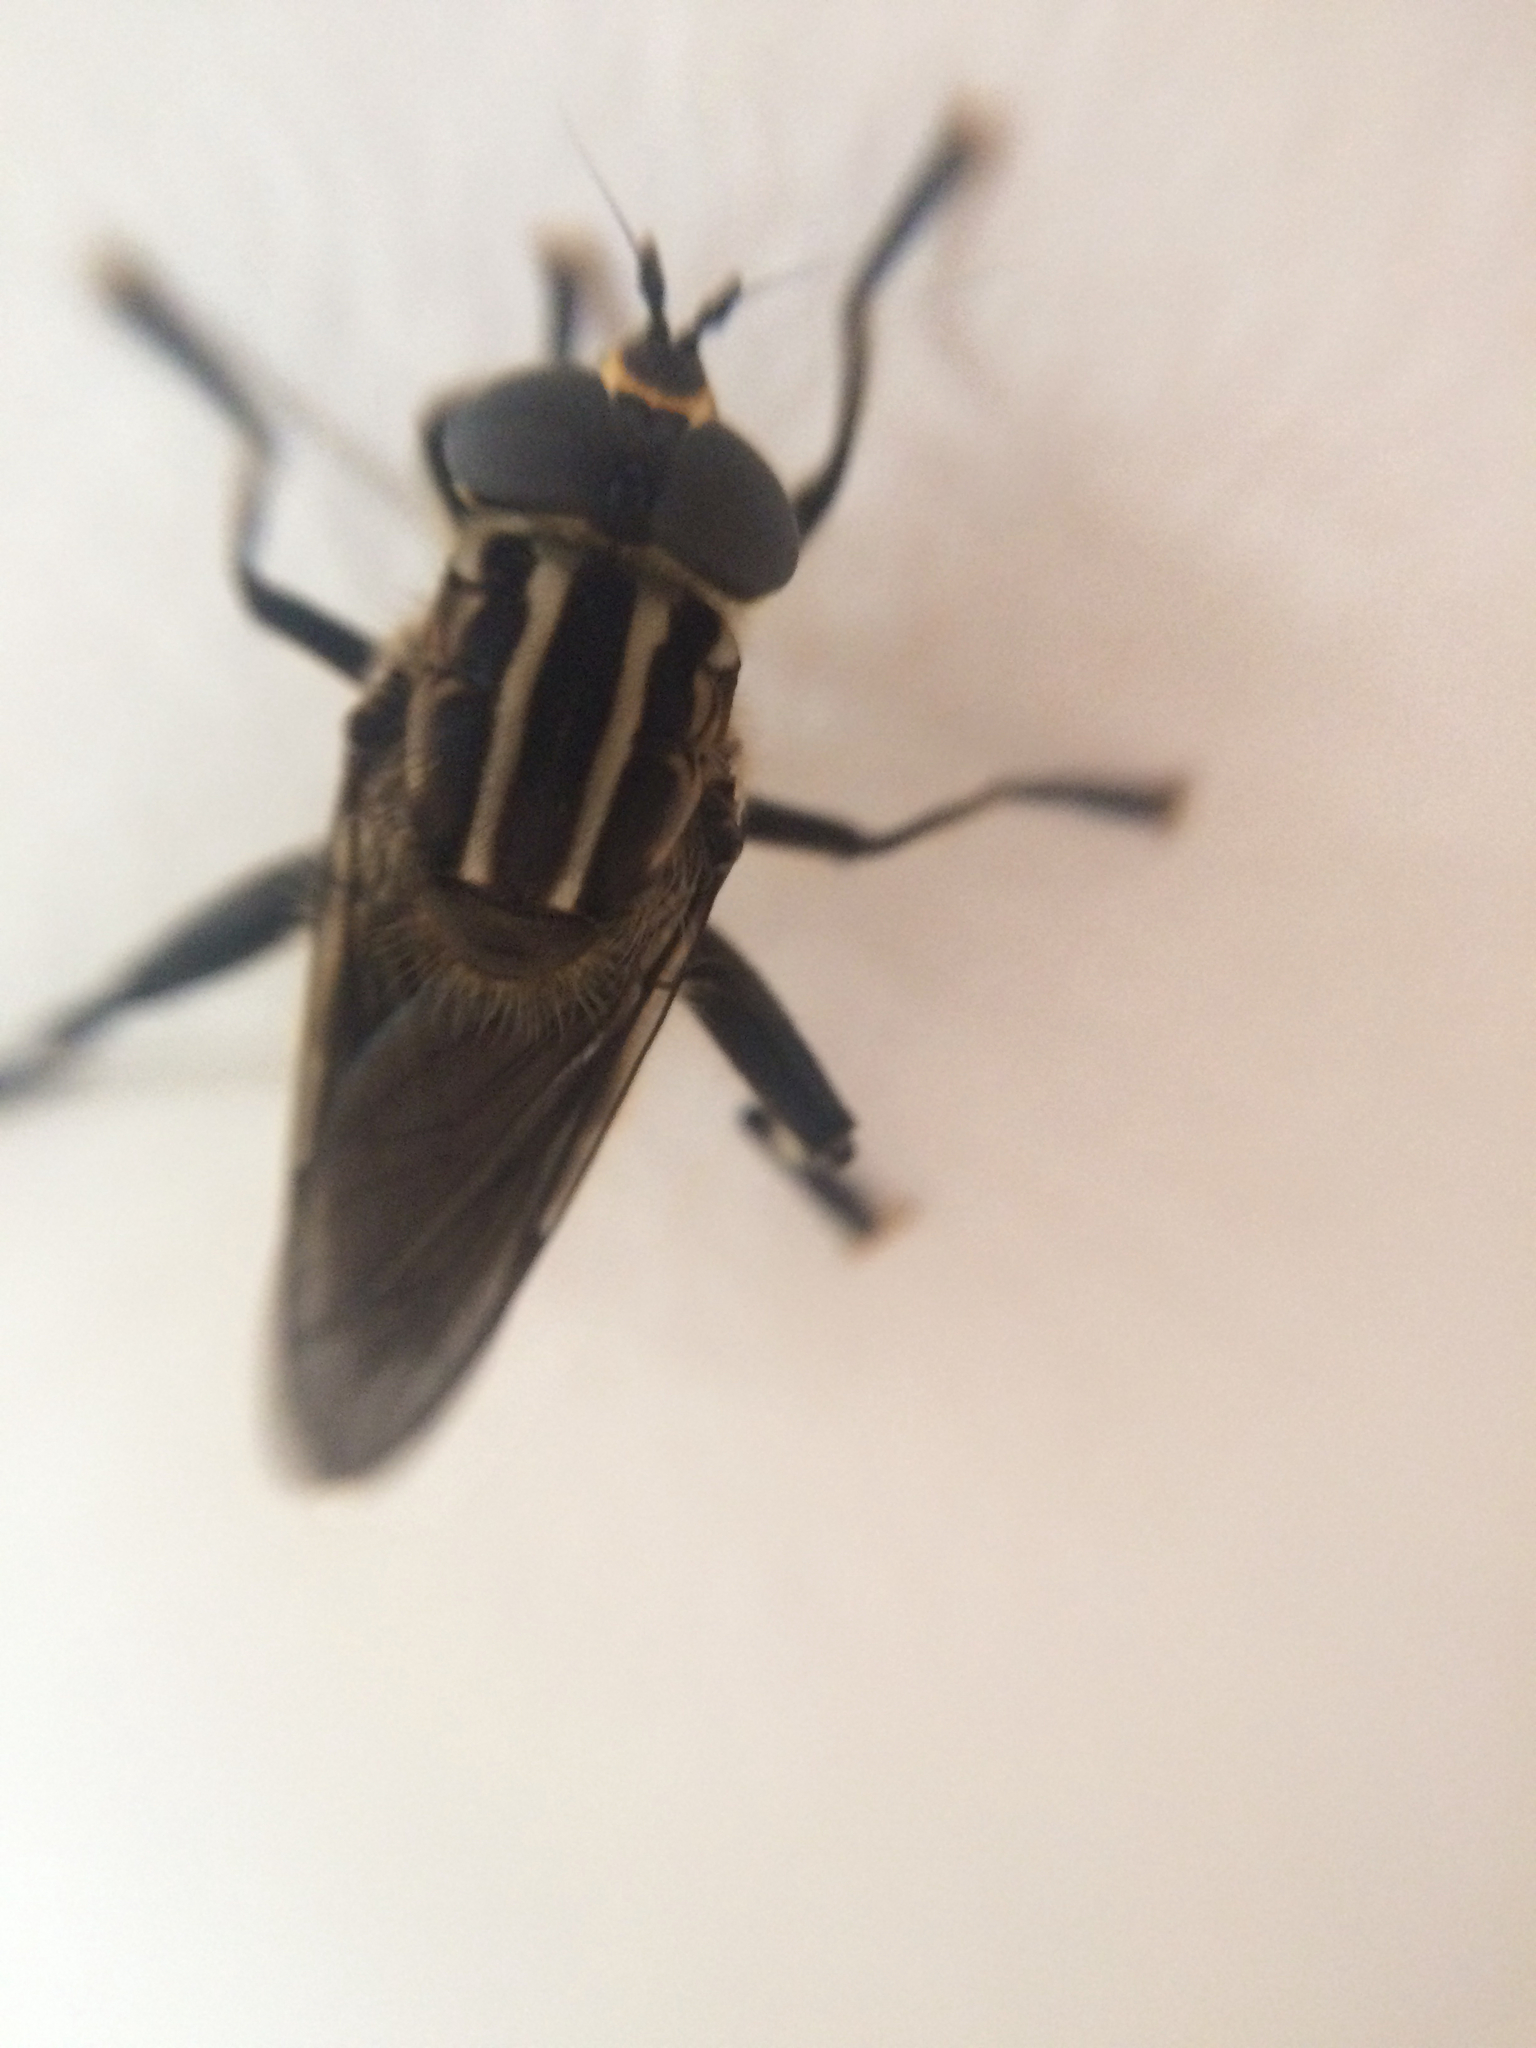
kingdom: Animalia
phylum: Arthropoda
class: Insecta
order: Diptera
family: Syrphidae
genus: Orthoprosopa
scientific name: Orthoprosopa bilineata
